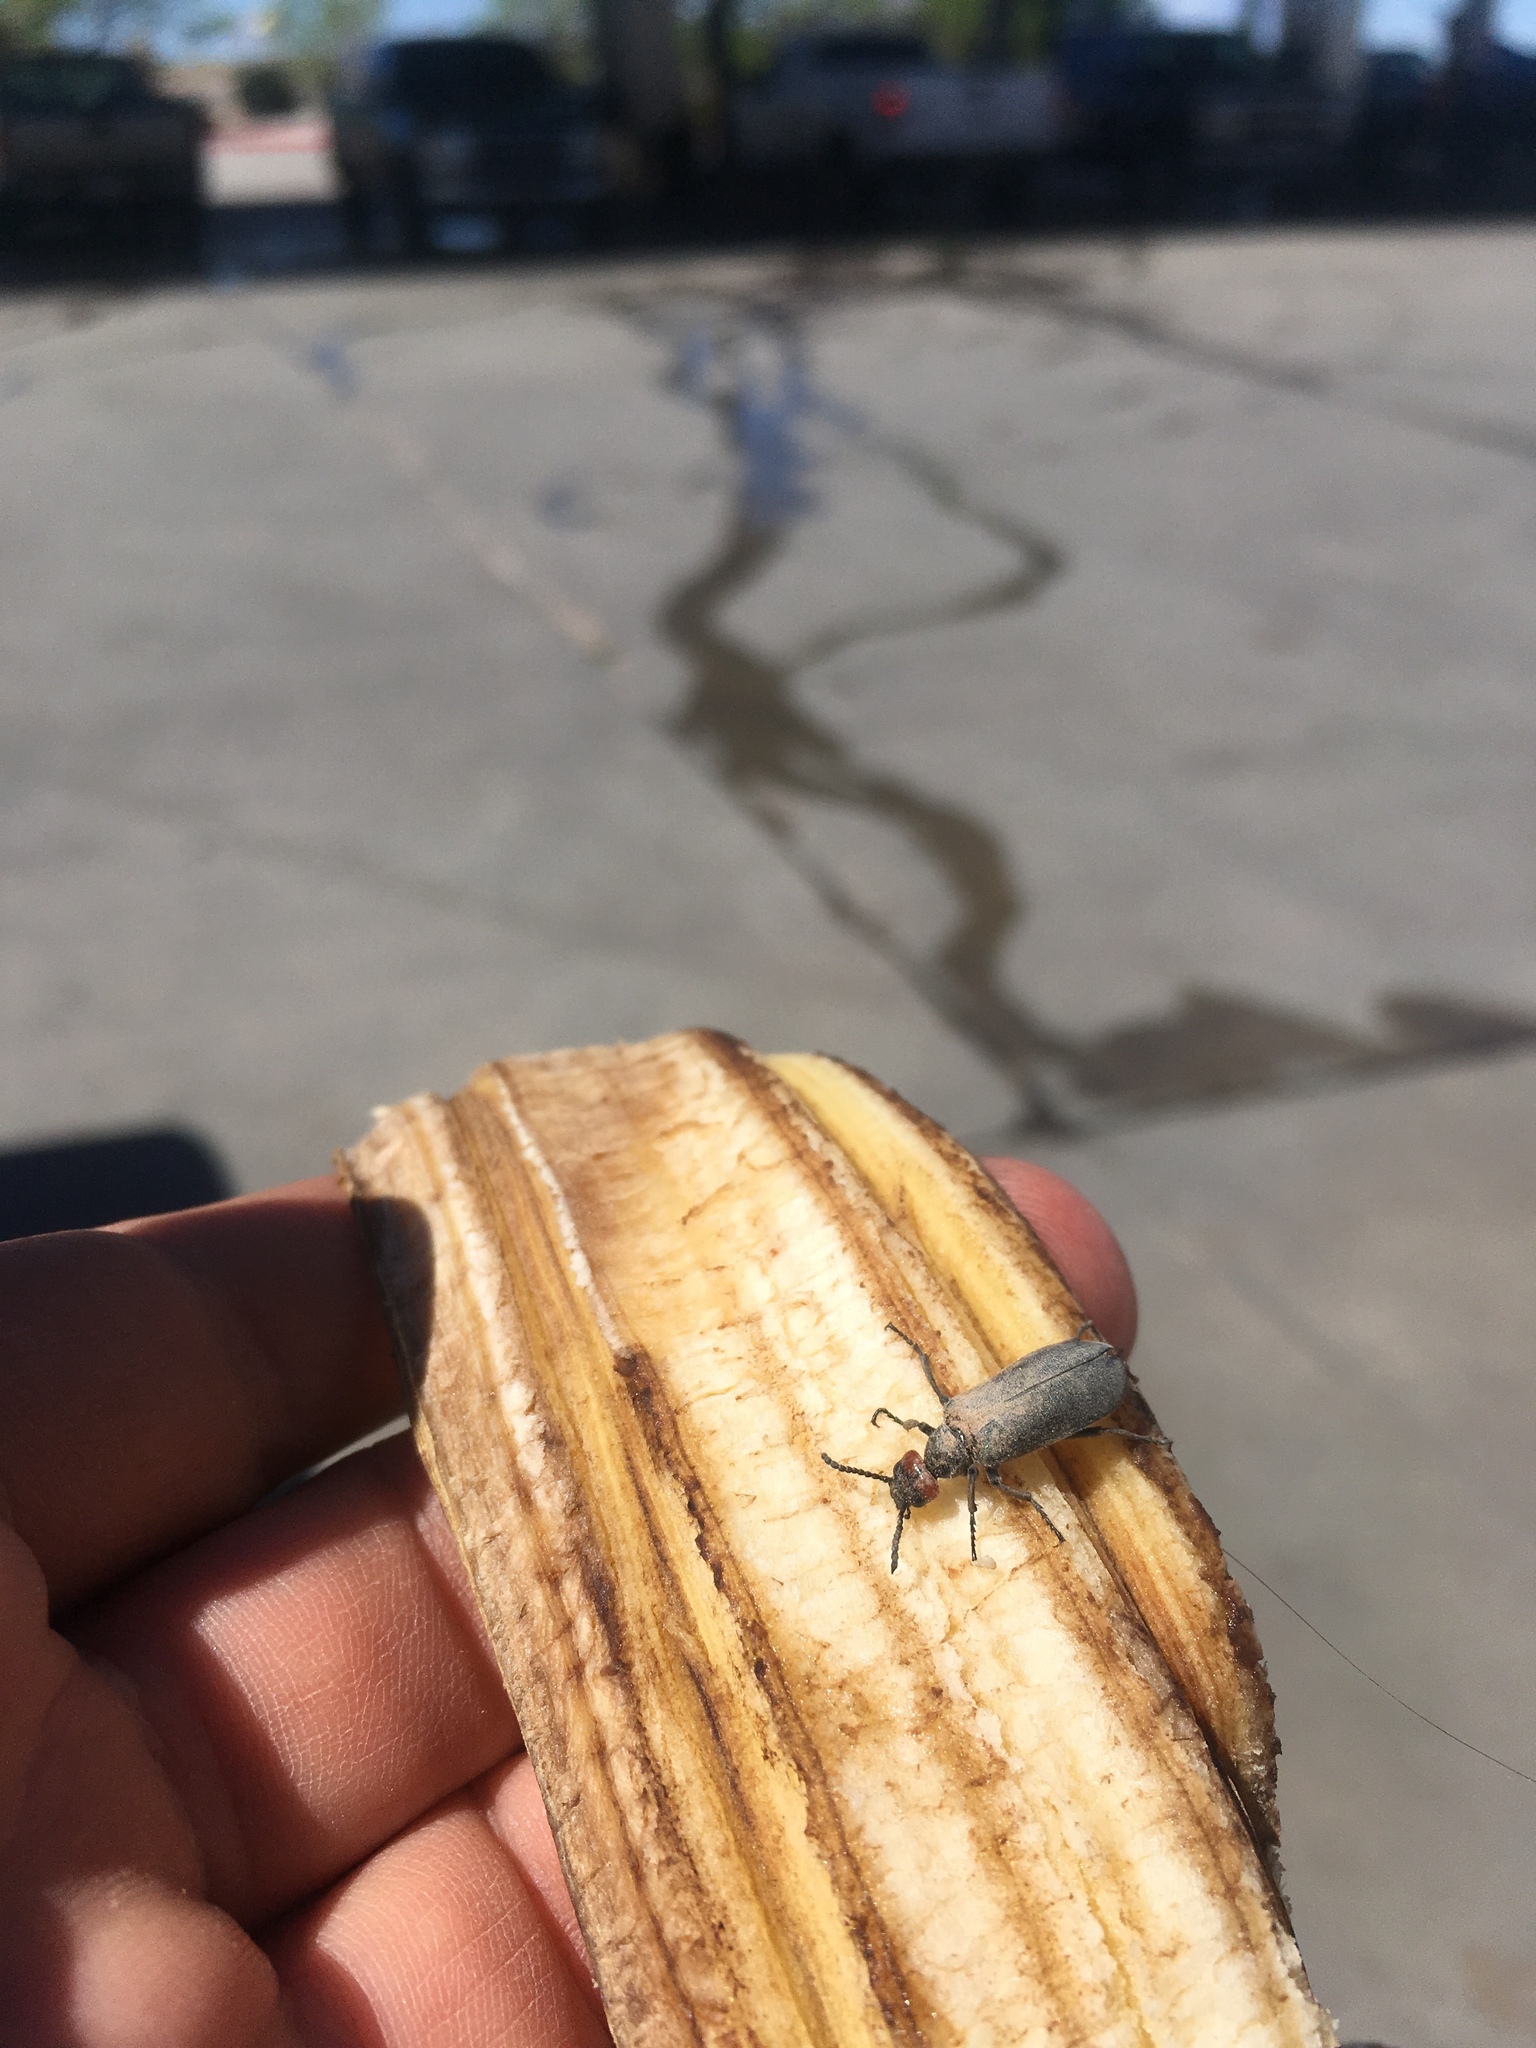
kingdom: Animalia
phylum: Arthropoda
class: Insecta
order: Coleoptera
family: Meloidae
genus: Lytta
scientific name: Lytta auriculata
